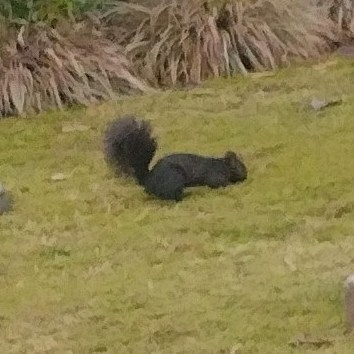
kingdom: Animalia
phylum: Chordata
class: Mammalia
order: Rodentia
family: Sciuridae
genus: Sciurus
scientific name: Sciurus carolinensis
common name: Eastern gray squirrel
